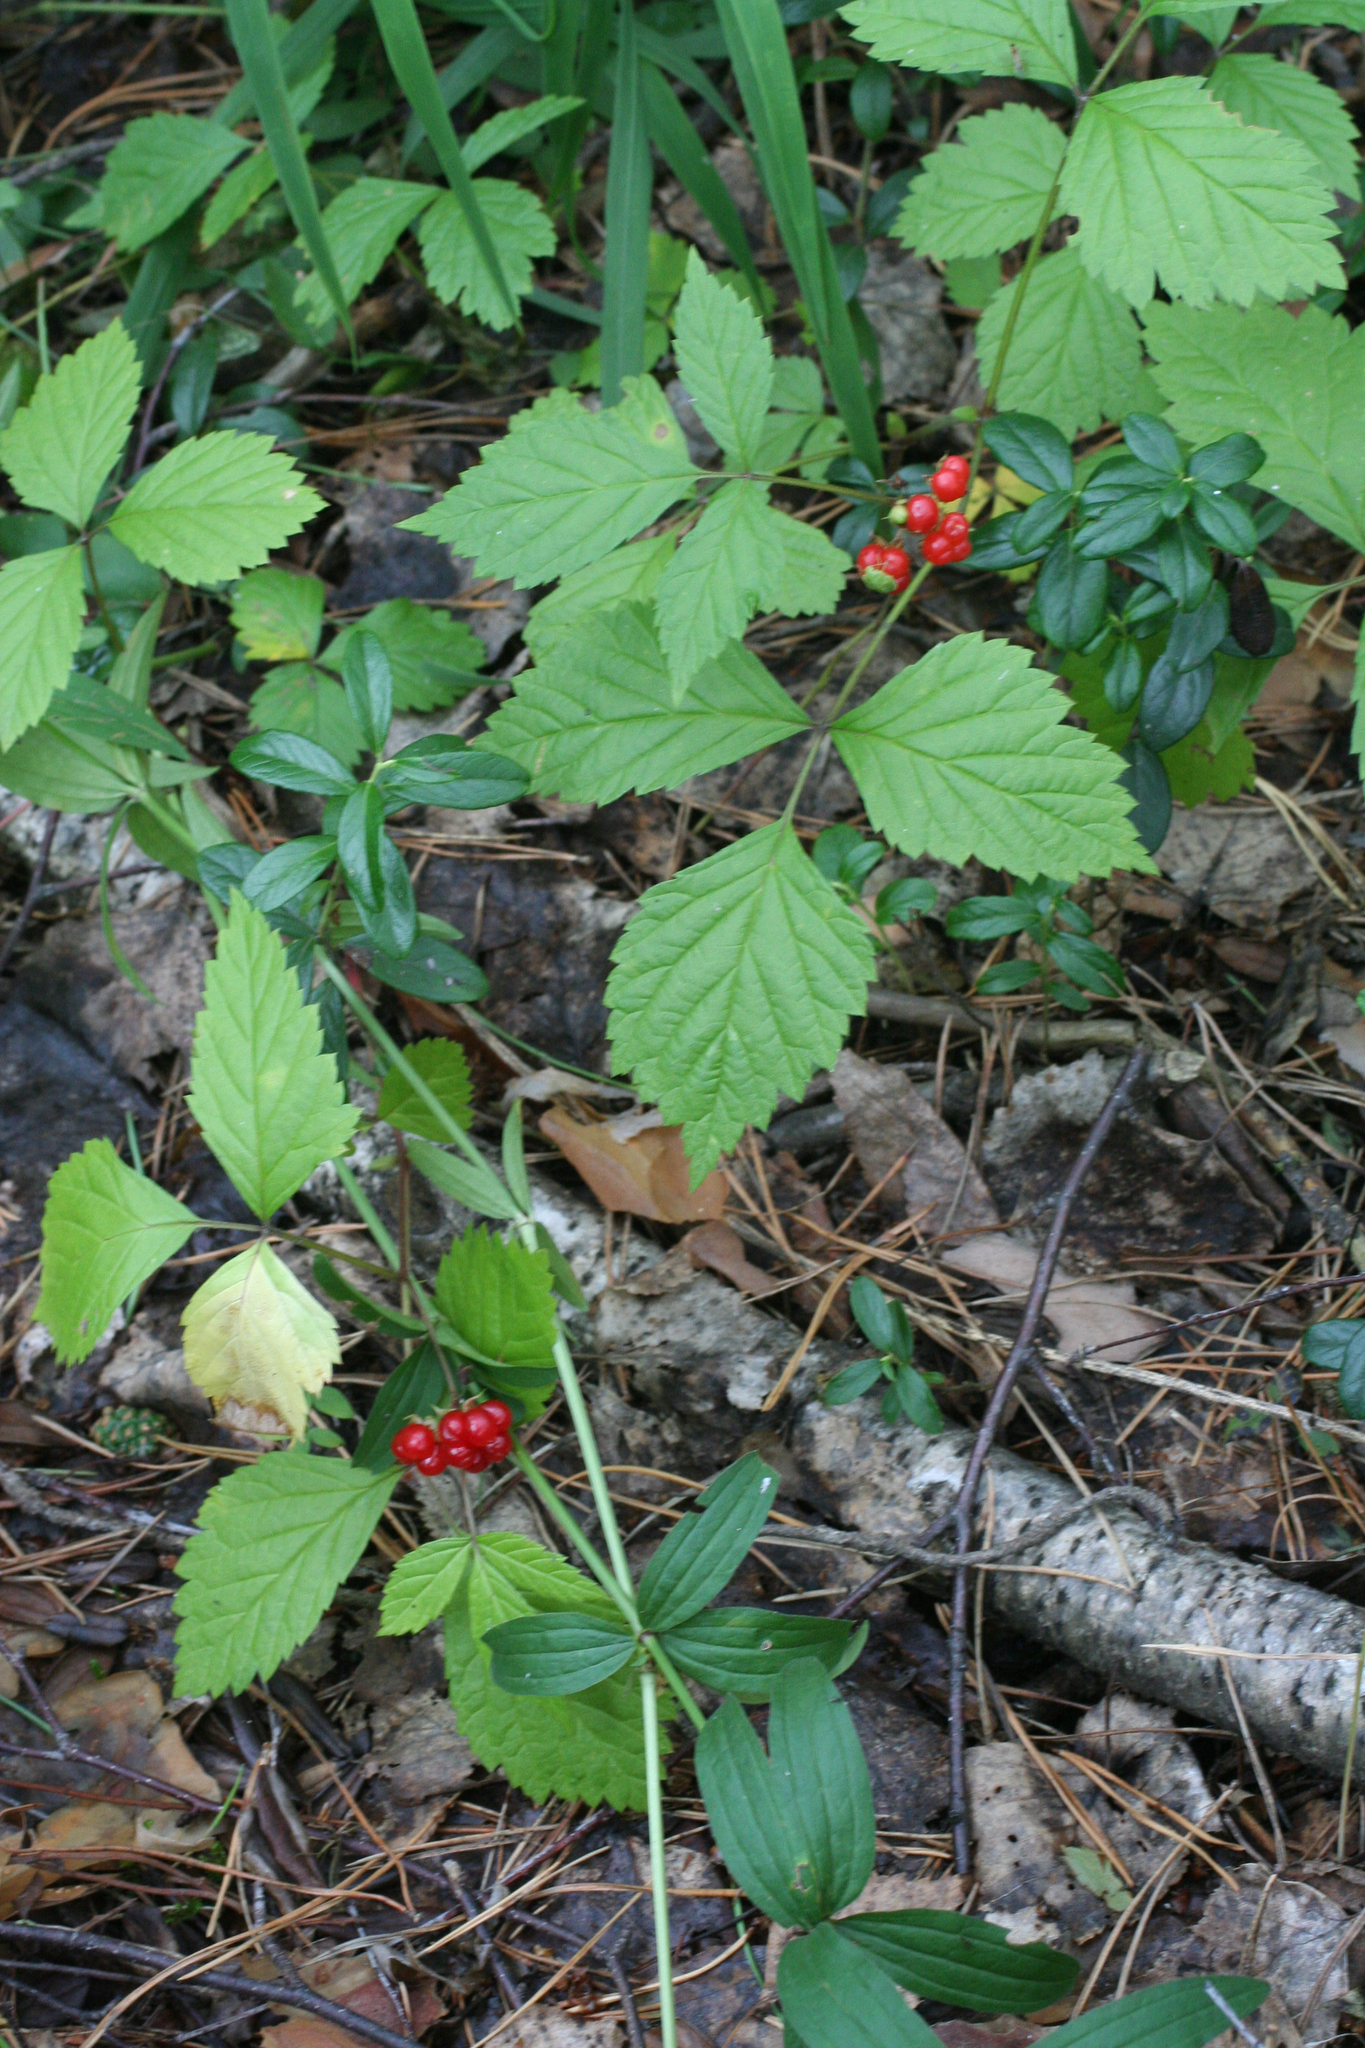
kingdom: Plantae
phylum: Tracheophyta
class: Magnoliopsida
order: Rosales
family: Rosaceae
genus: Rubus
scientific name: Rubus saxatilis
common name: Stone bramble
